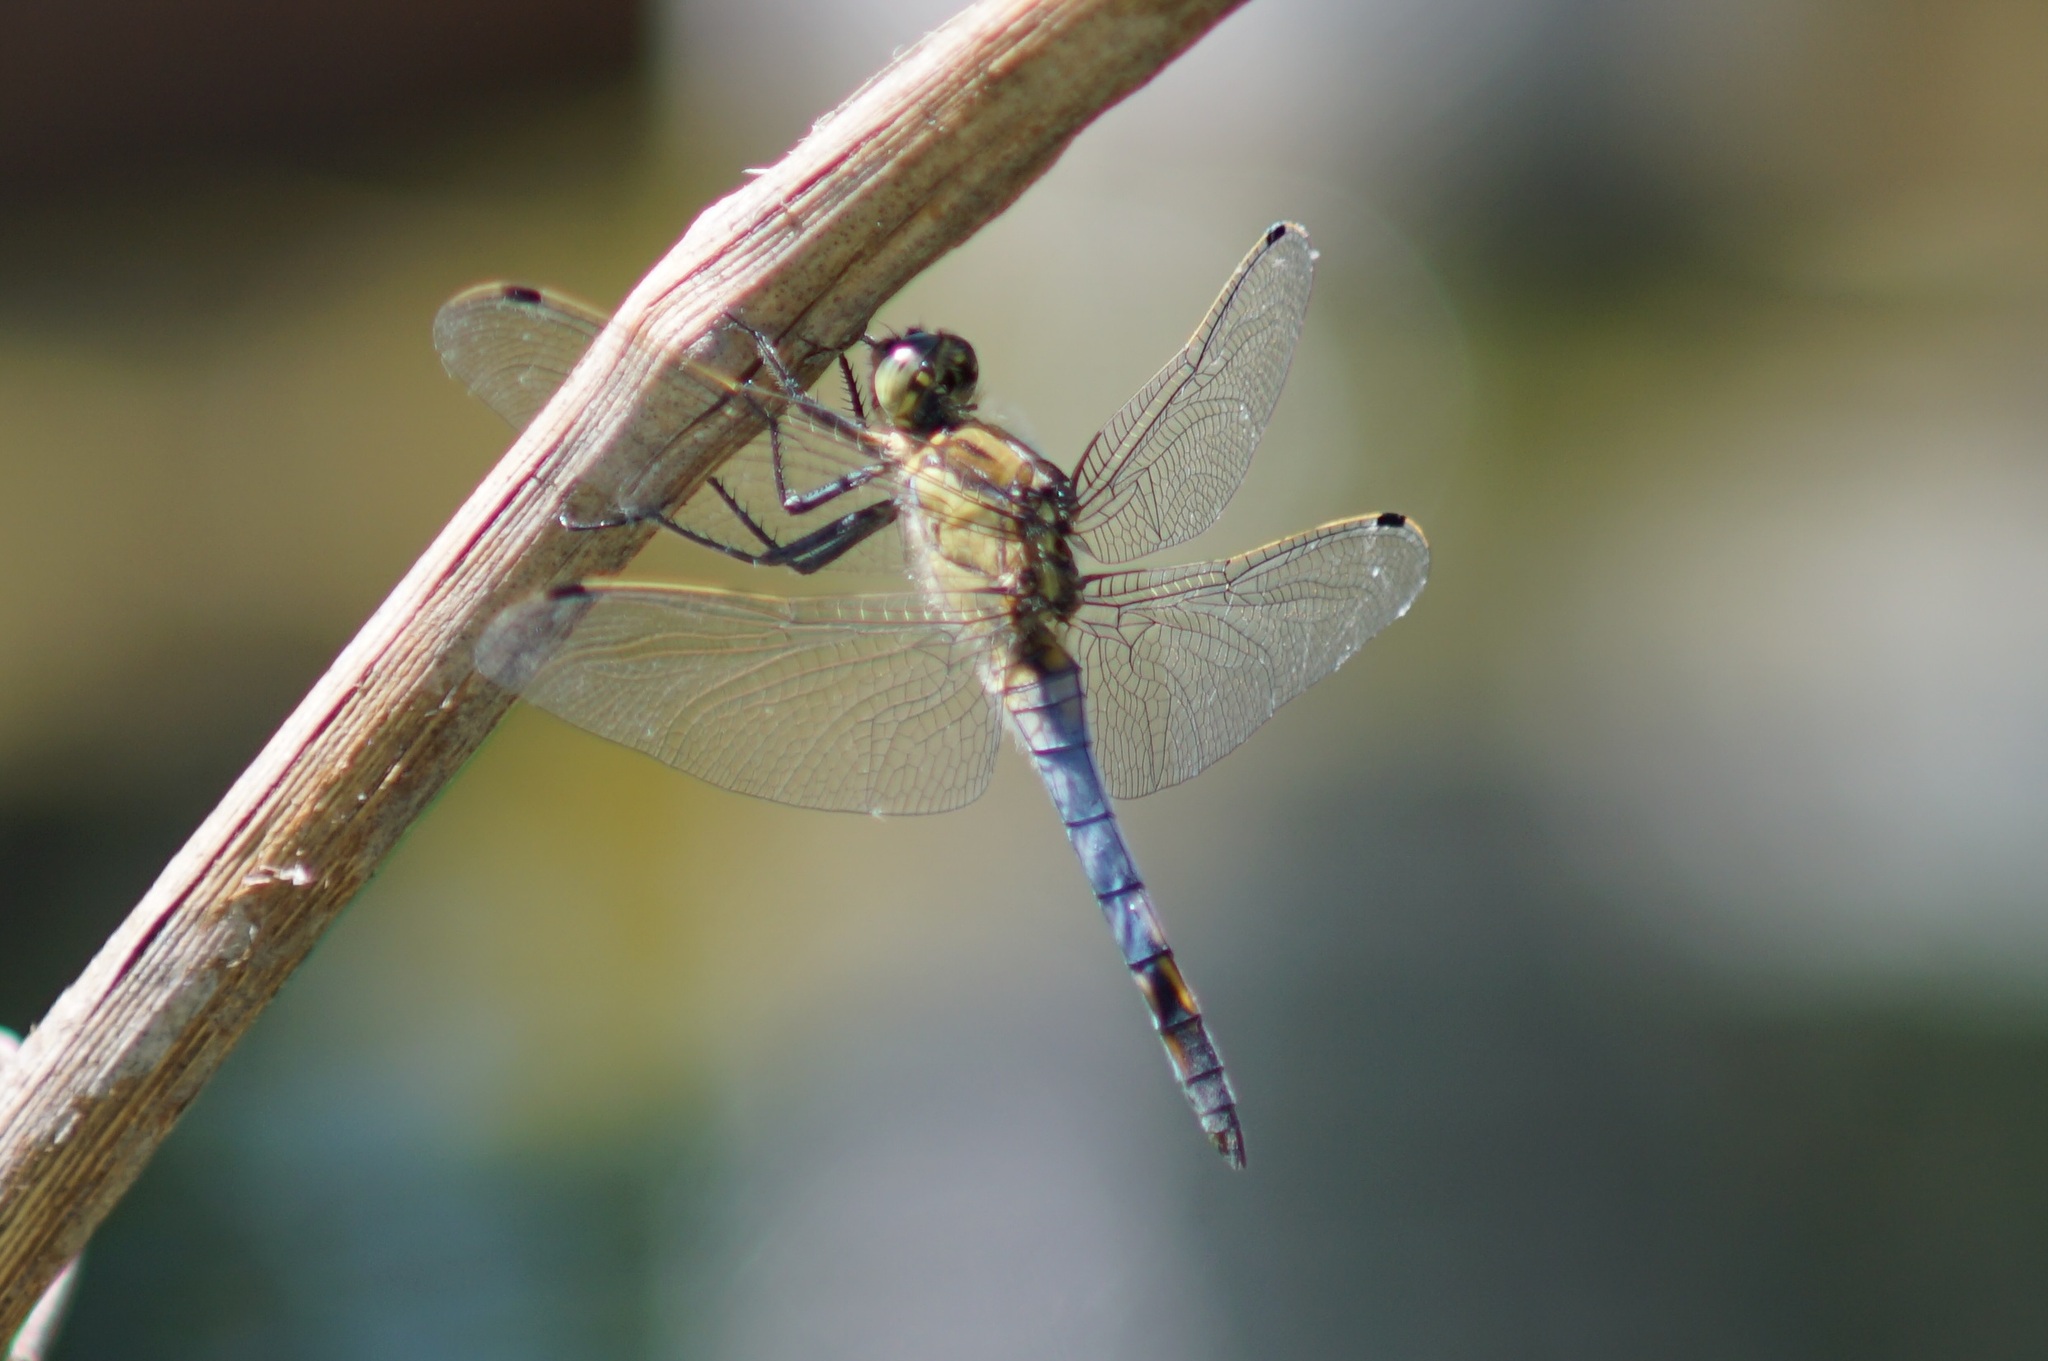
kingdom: Animalia
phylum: Arthropoda
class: Insecta
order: Odonata
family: Libellulidae
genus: Orthetrum
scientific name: Orthetrum cancellatum
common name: Black-tailed skimmer
